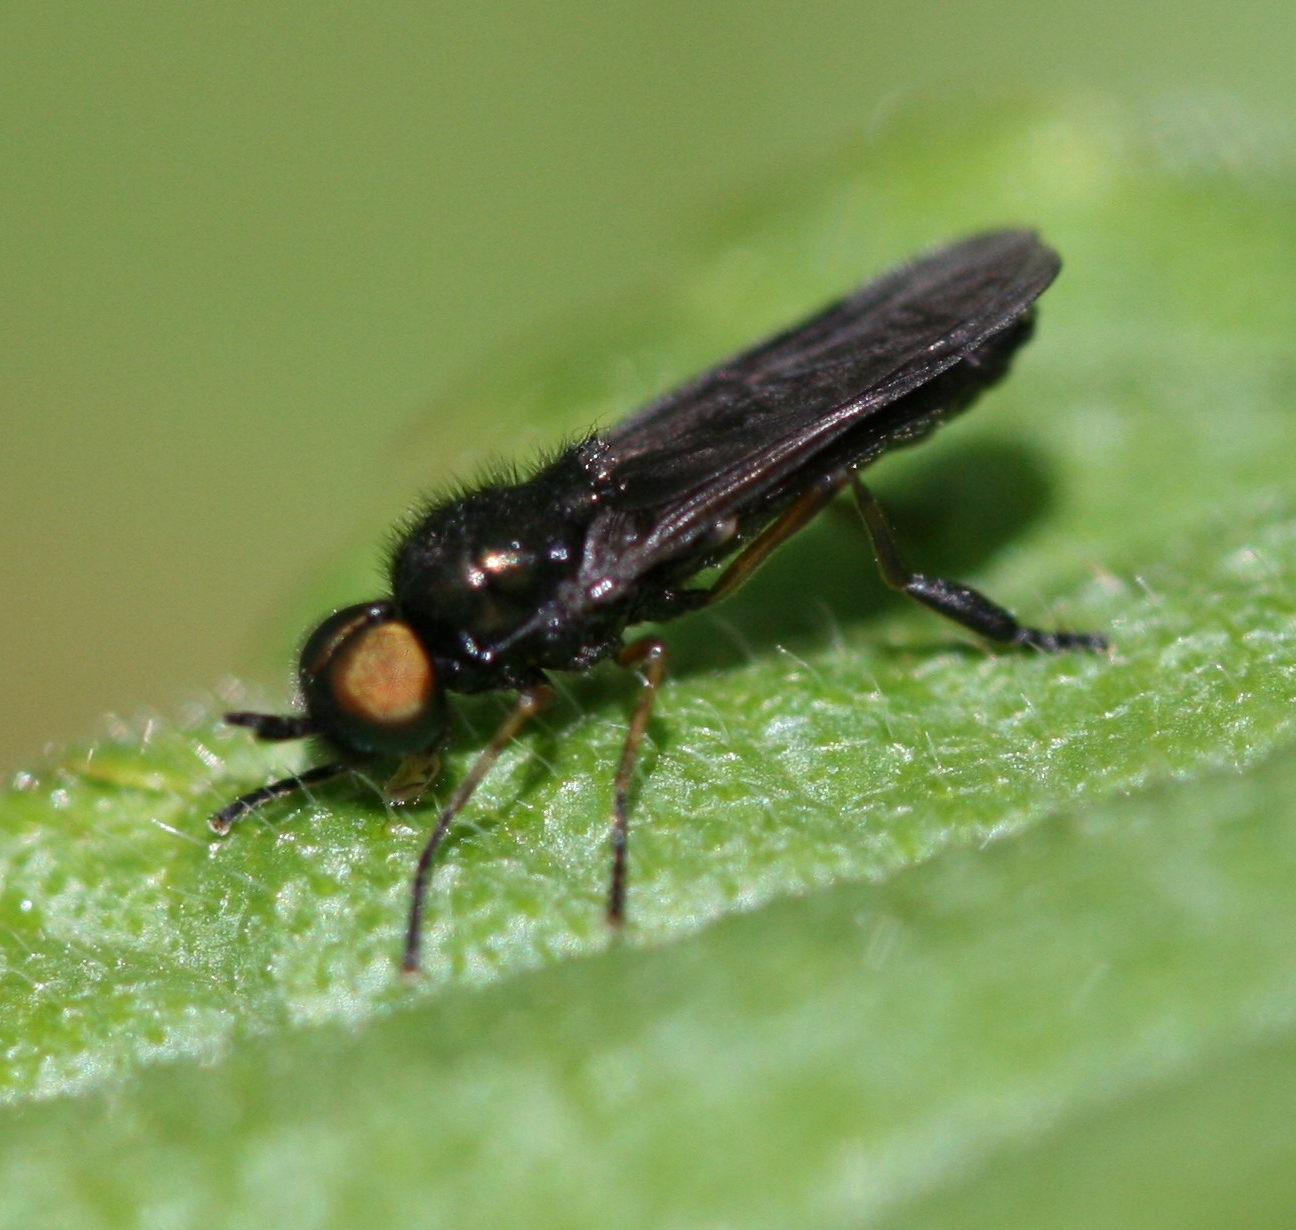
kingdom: Animalia
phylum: Arthropoda
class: Insecta
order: Diptera
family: Stratiomyidae
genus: Beris
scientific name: Beris chalybata
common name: Murky-legged black legionnaire
